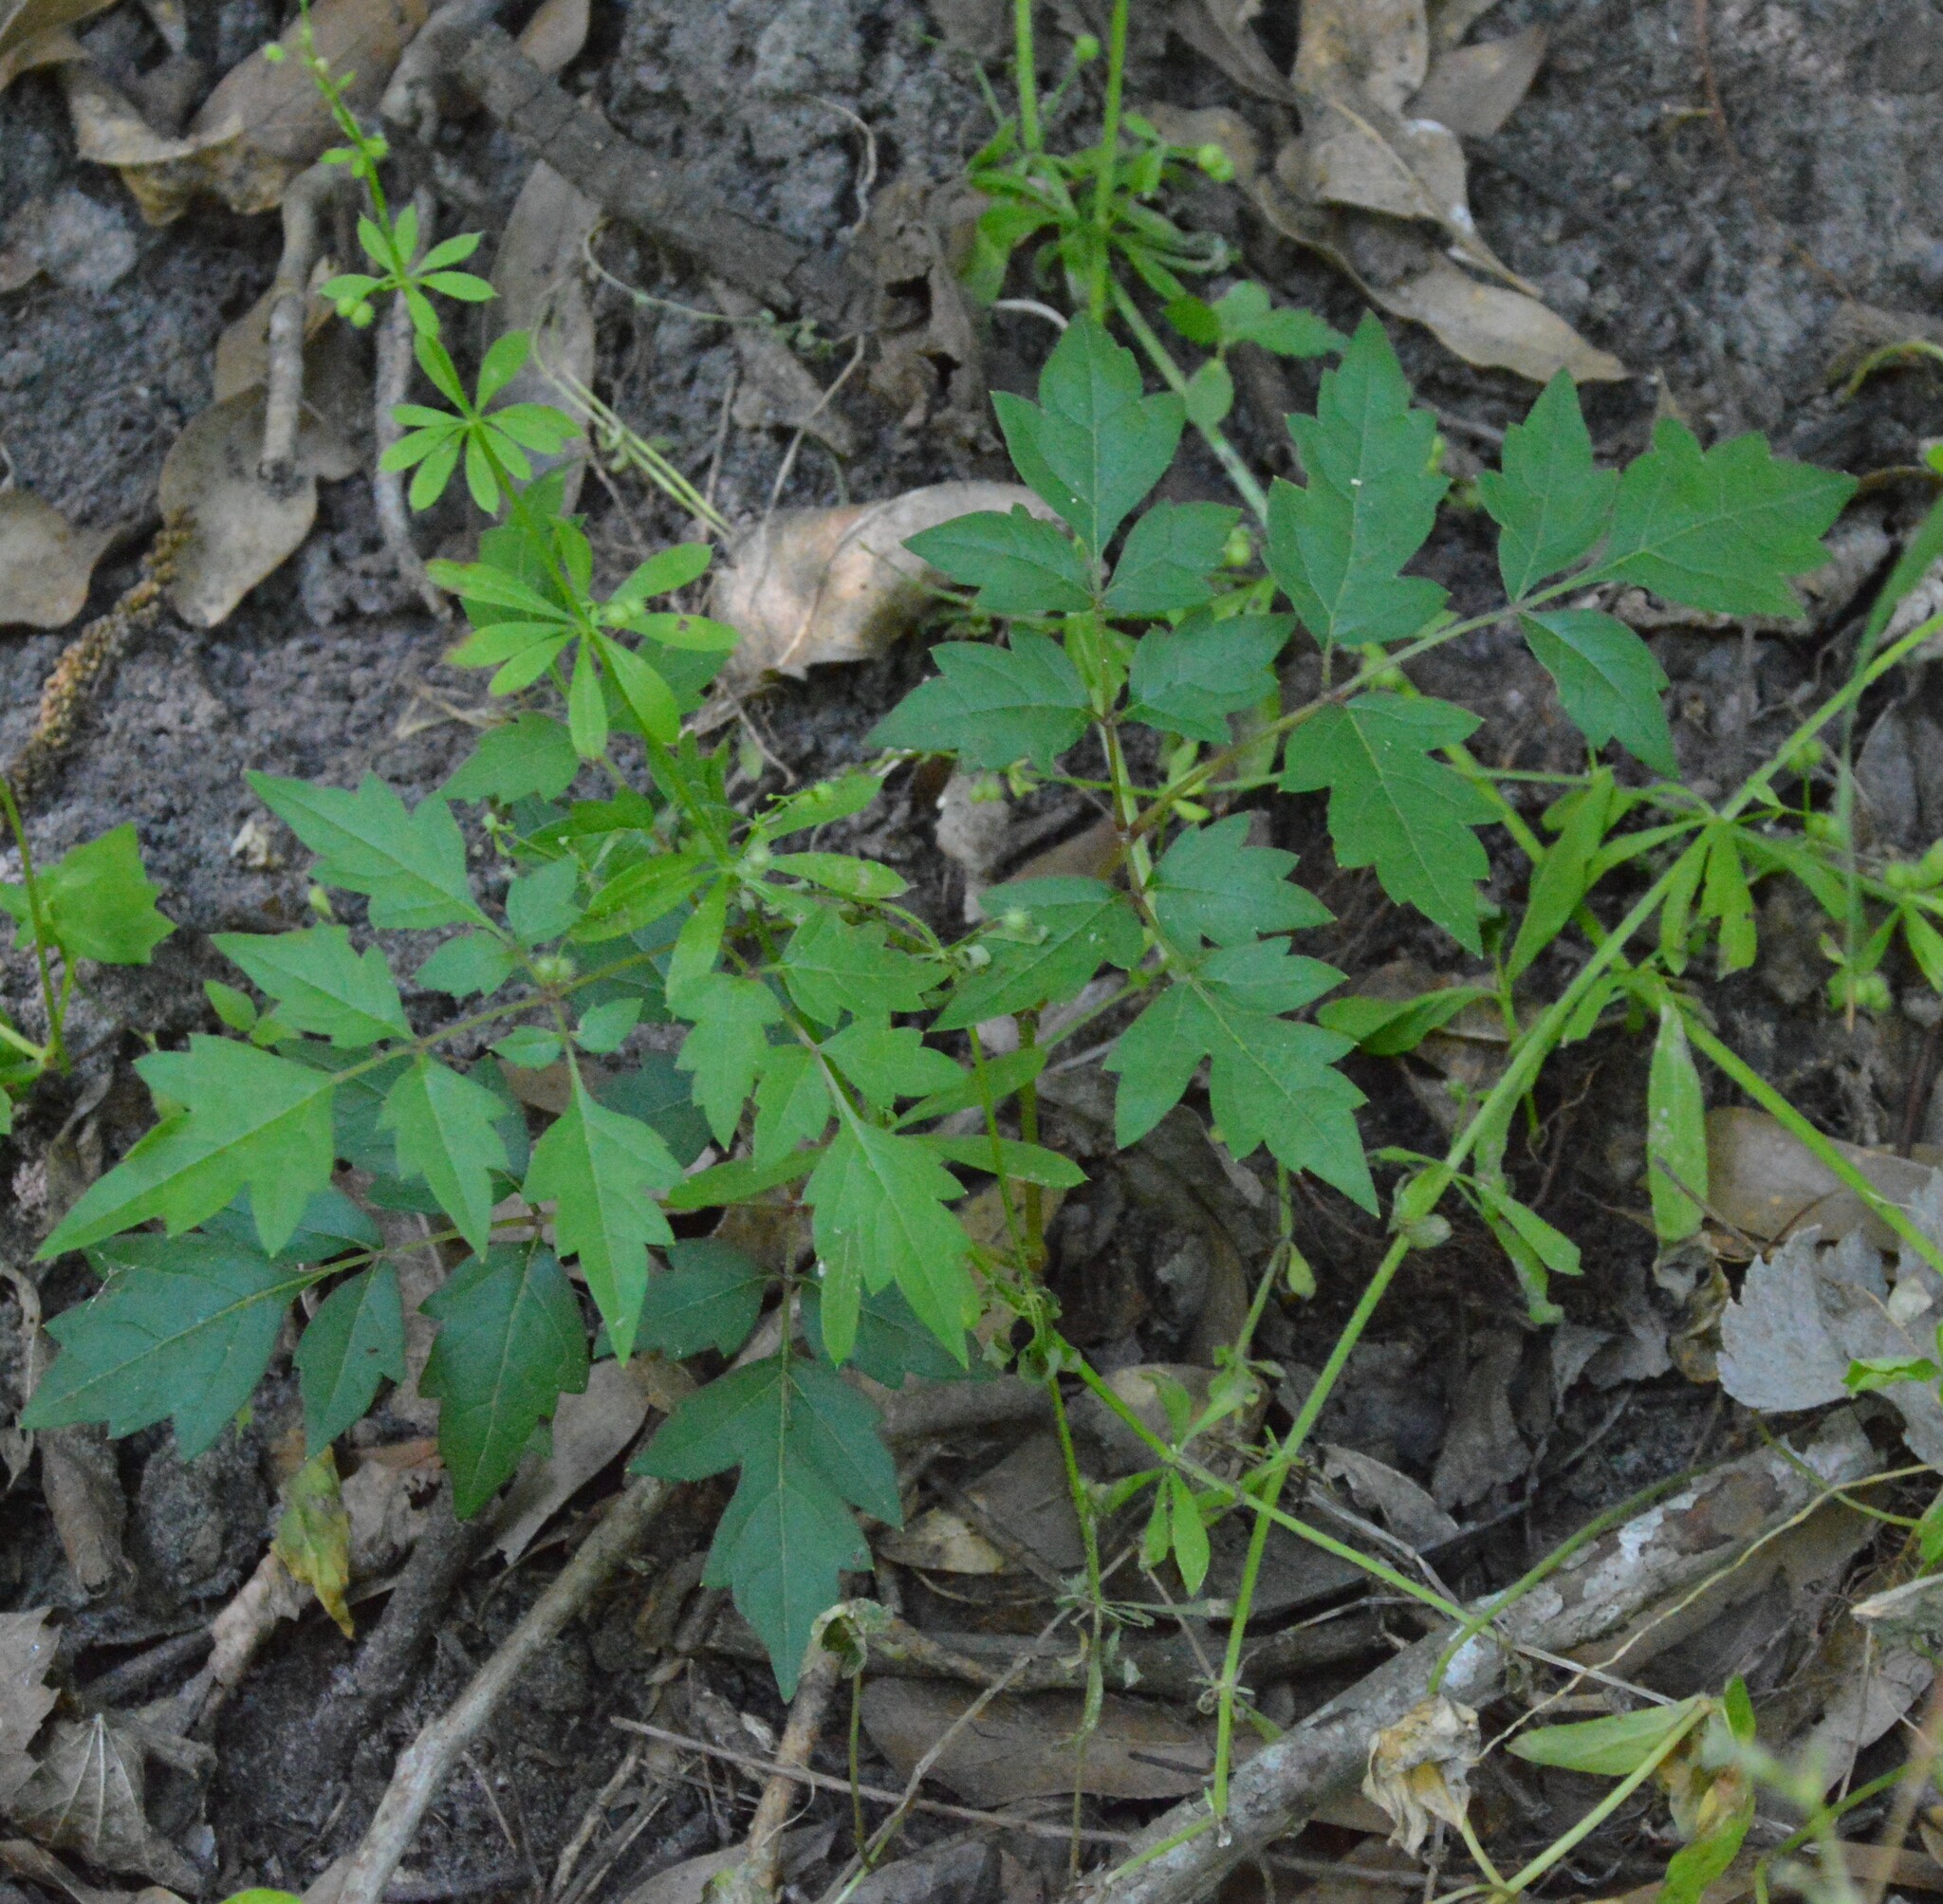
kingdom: Plantae
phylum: Tracheophyta
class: Magnoliopsida
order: Vitales
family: Vitaceae
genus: Nekemias
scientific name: Nekemias arborea
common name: Peppervine
